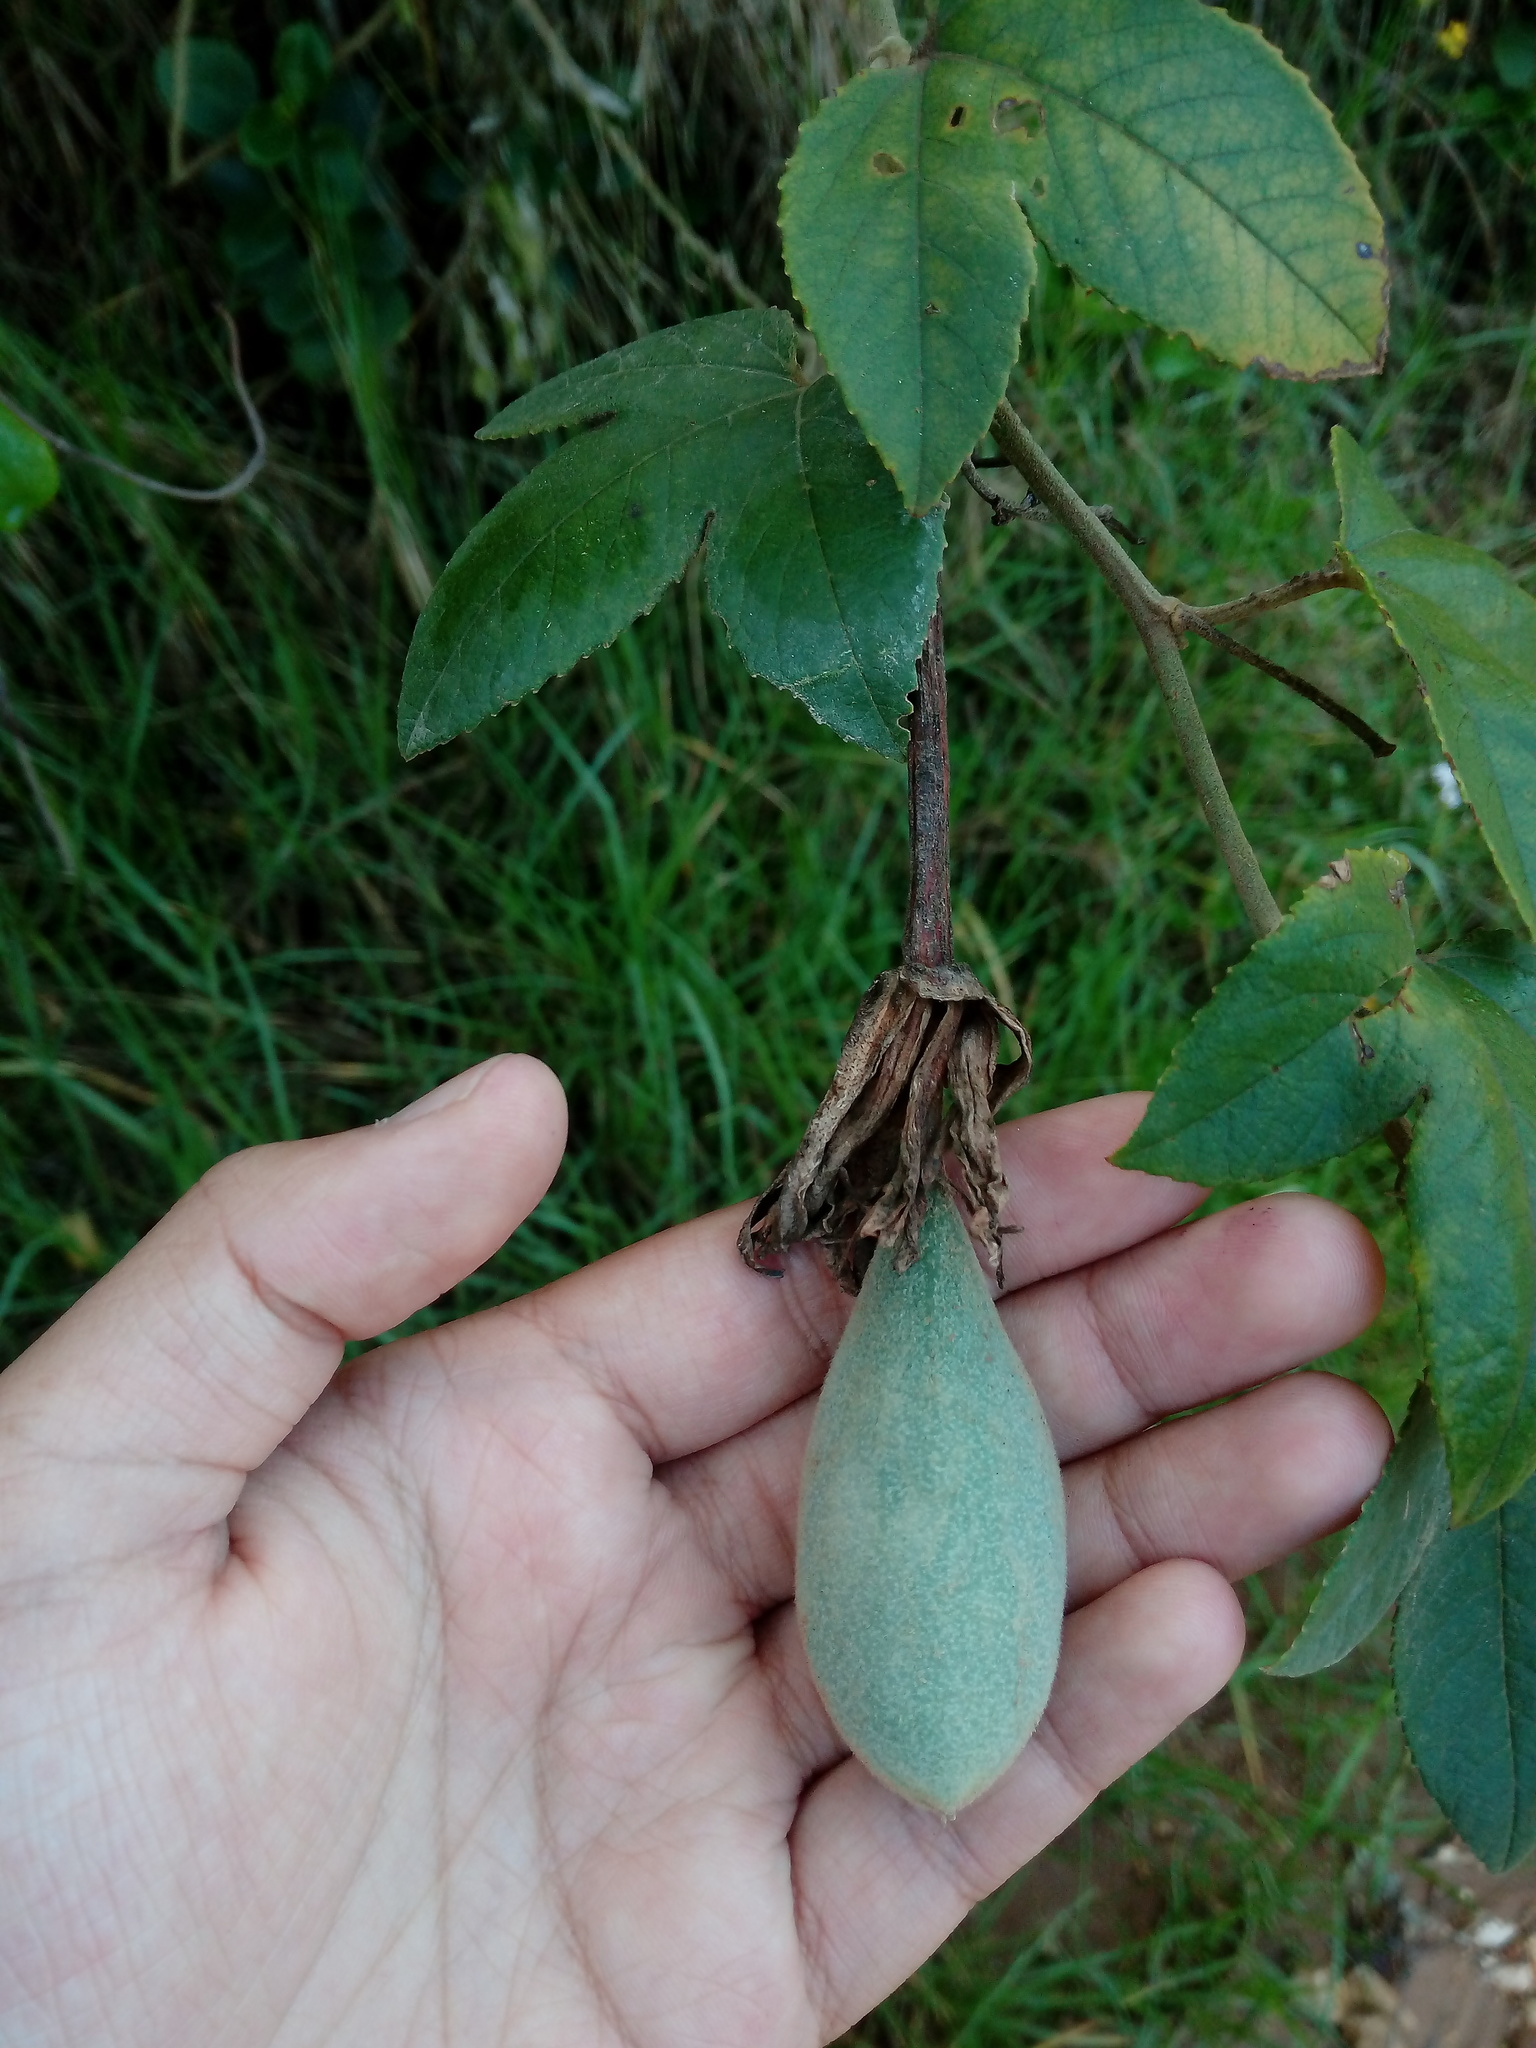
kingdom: Plantae
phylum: Tracheophyta
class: Magnoliopsida
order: Malpighiales
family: Passifloraceae
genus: Passiflora
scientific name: Passiflora mixta
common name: Passion flower
